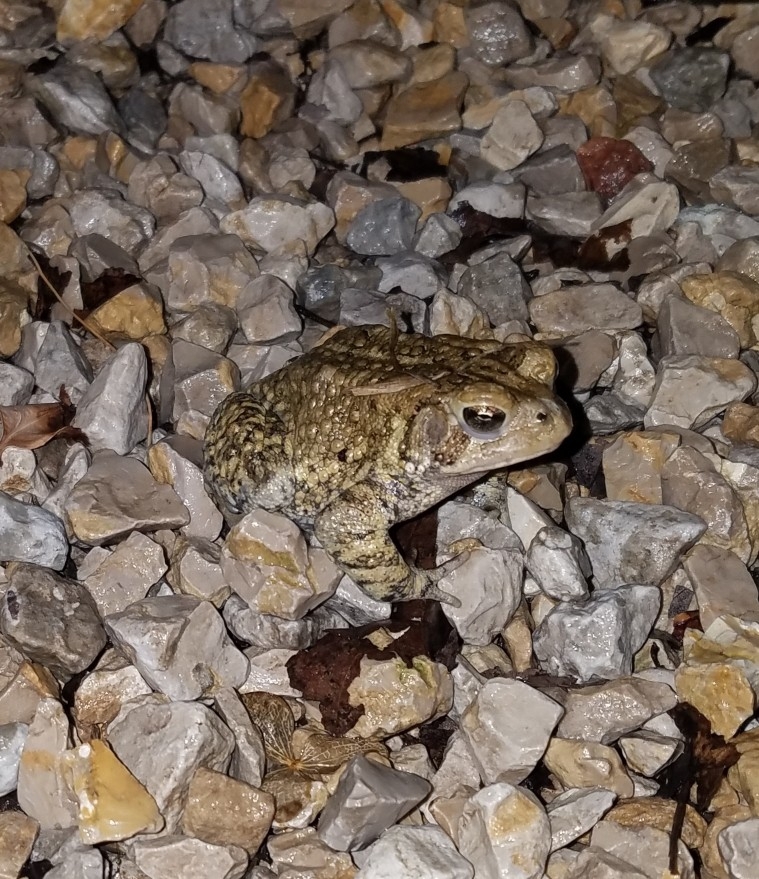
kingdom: Animalia
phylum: Chordata
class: Amphibia
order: Anura
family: Bufonidae
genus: Anaxyrus
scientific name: Anaxyrus americanus
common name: American toad
